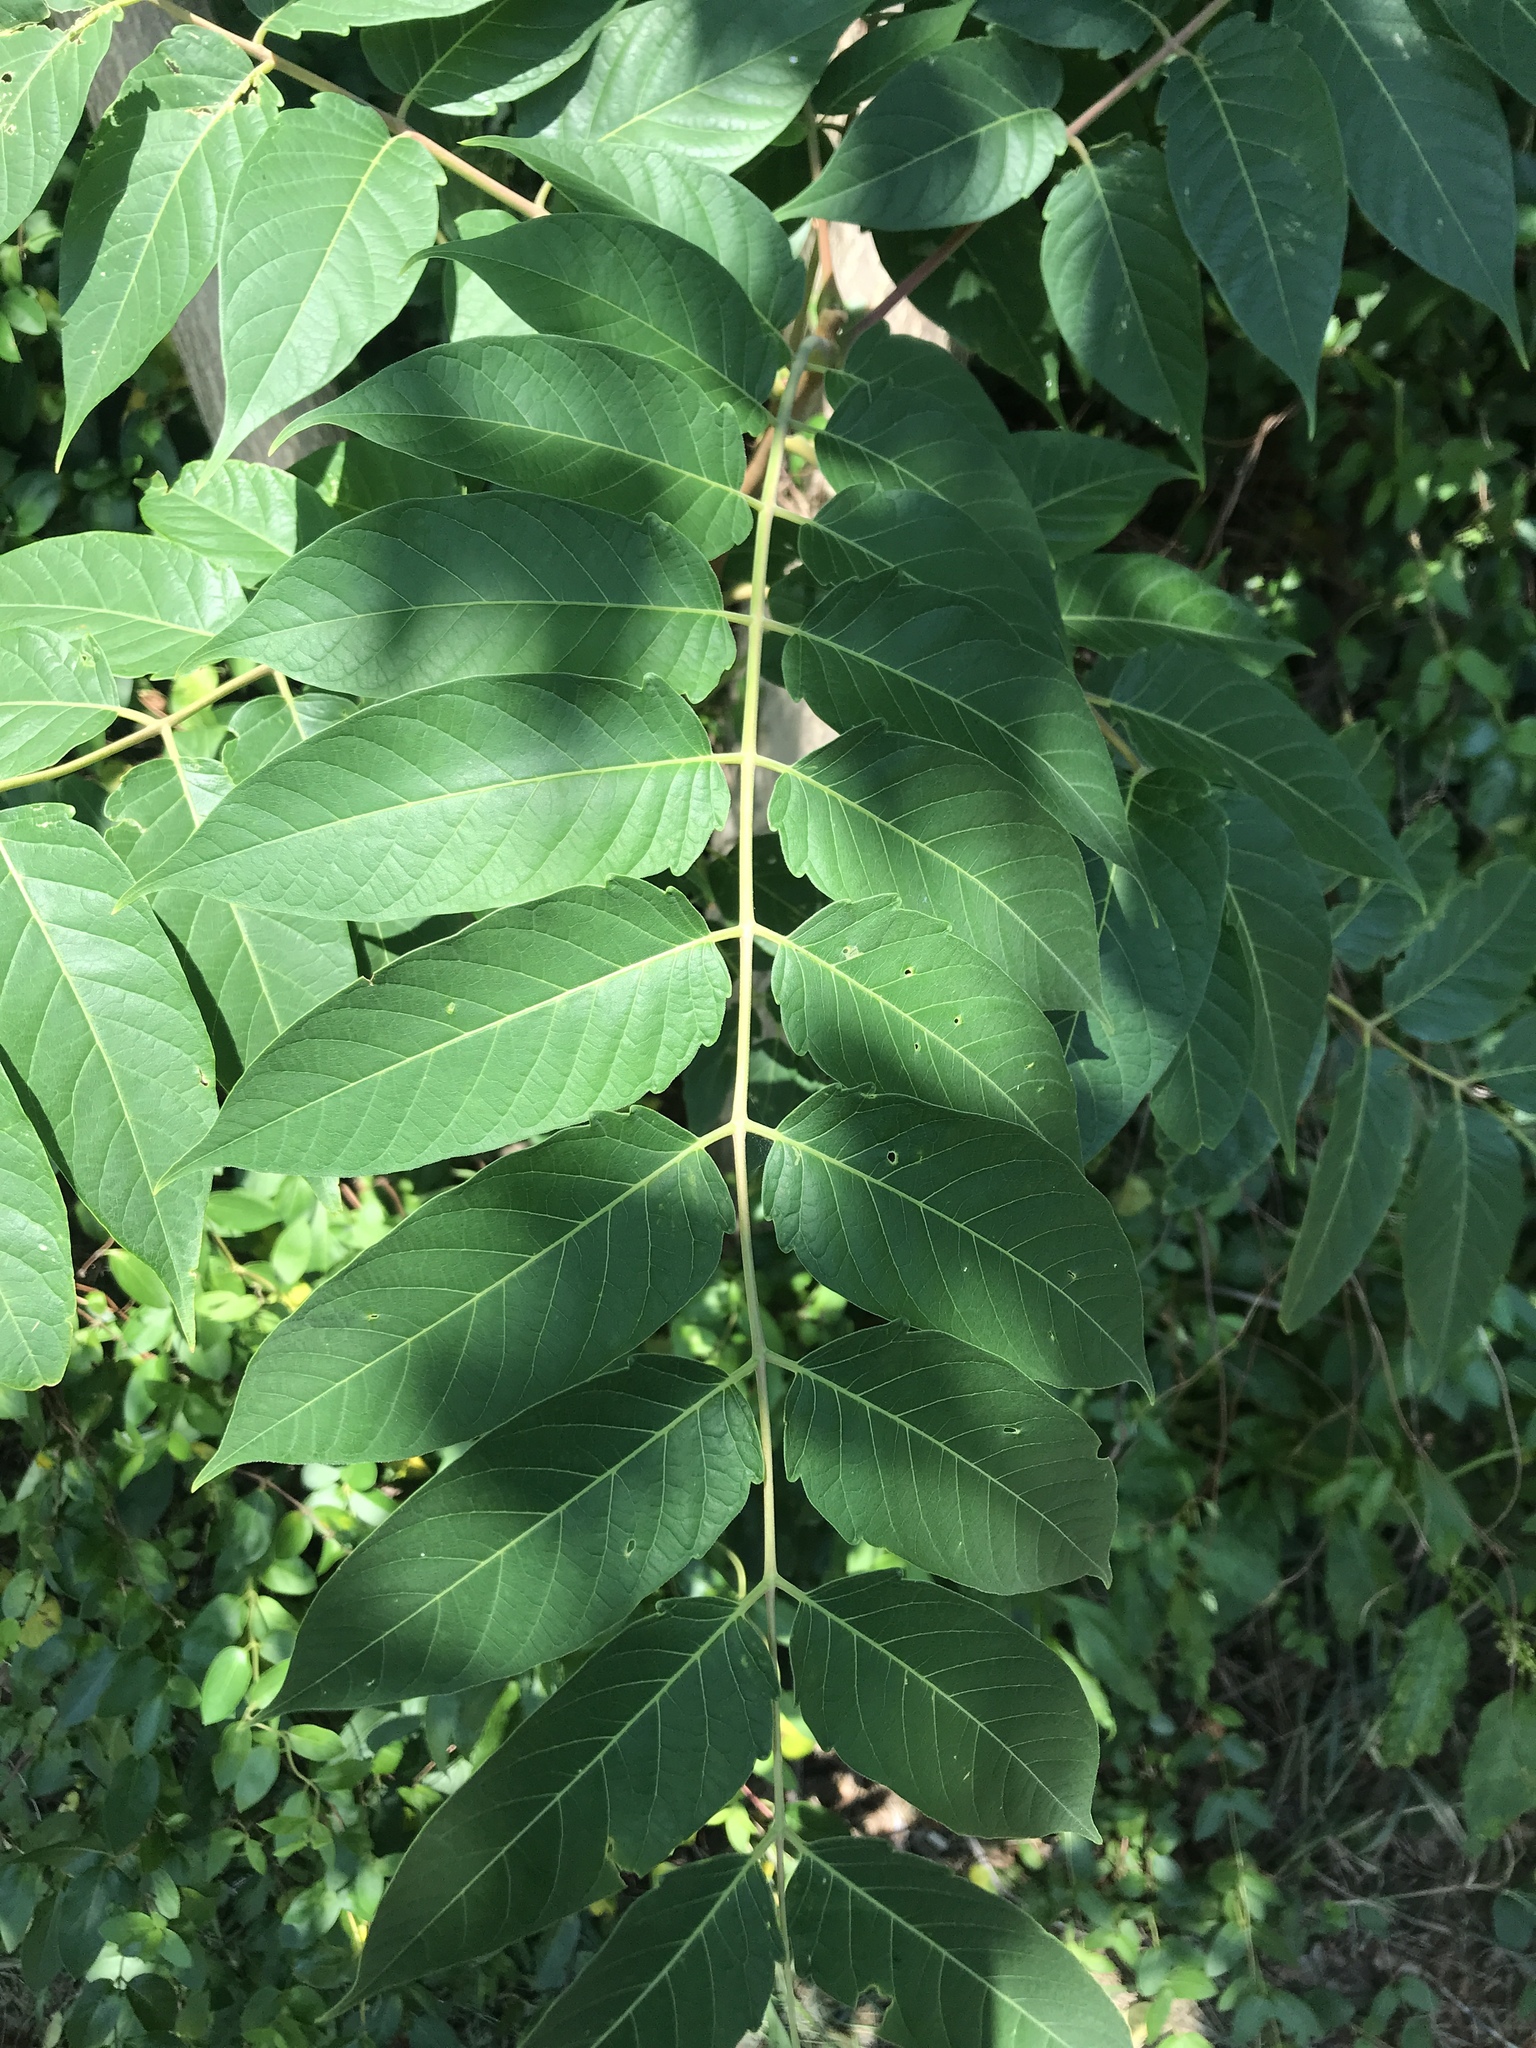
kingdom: Plantae
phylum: Tracheophyta
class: Magnoliopsida
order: Sapindales
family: Simaroubaceae
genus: Ailanthus
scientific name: Ailanthus altissima
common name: Tree-of-heaven
